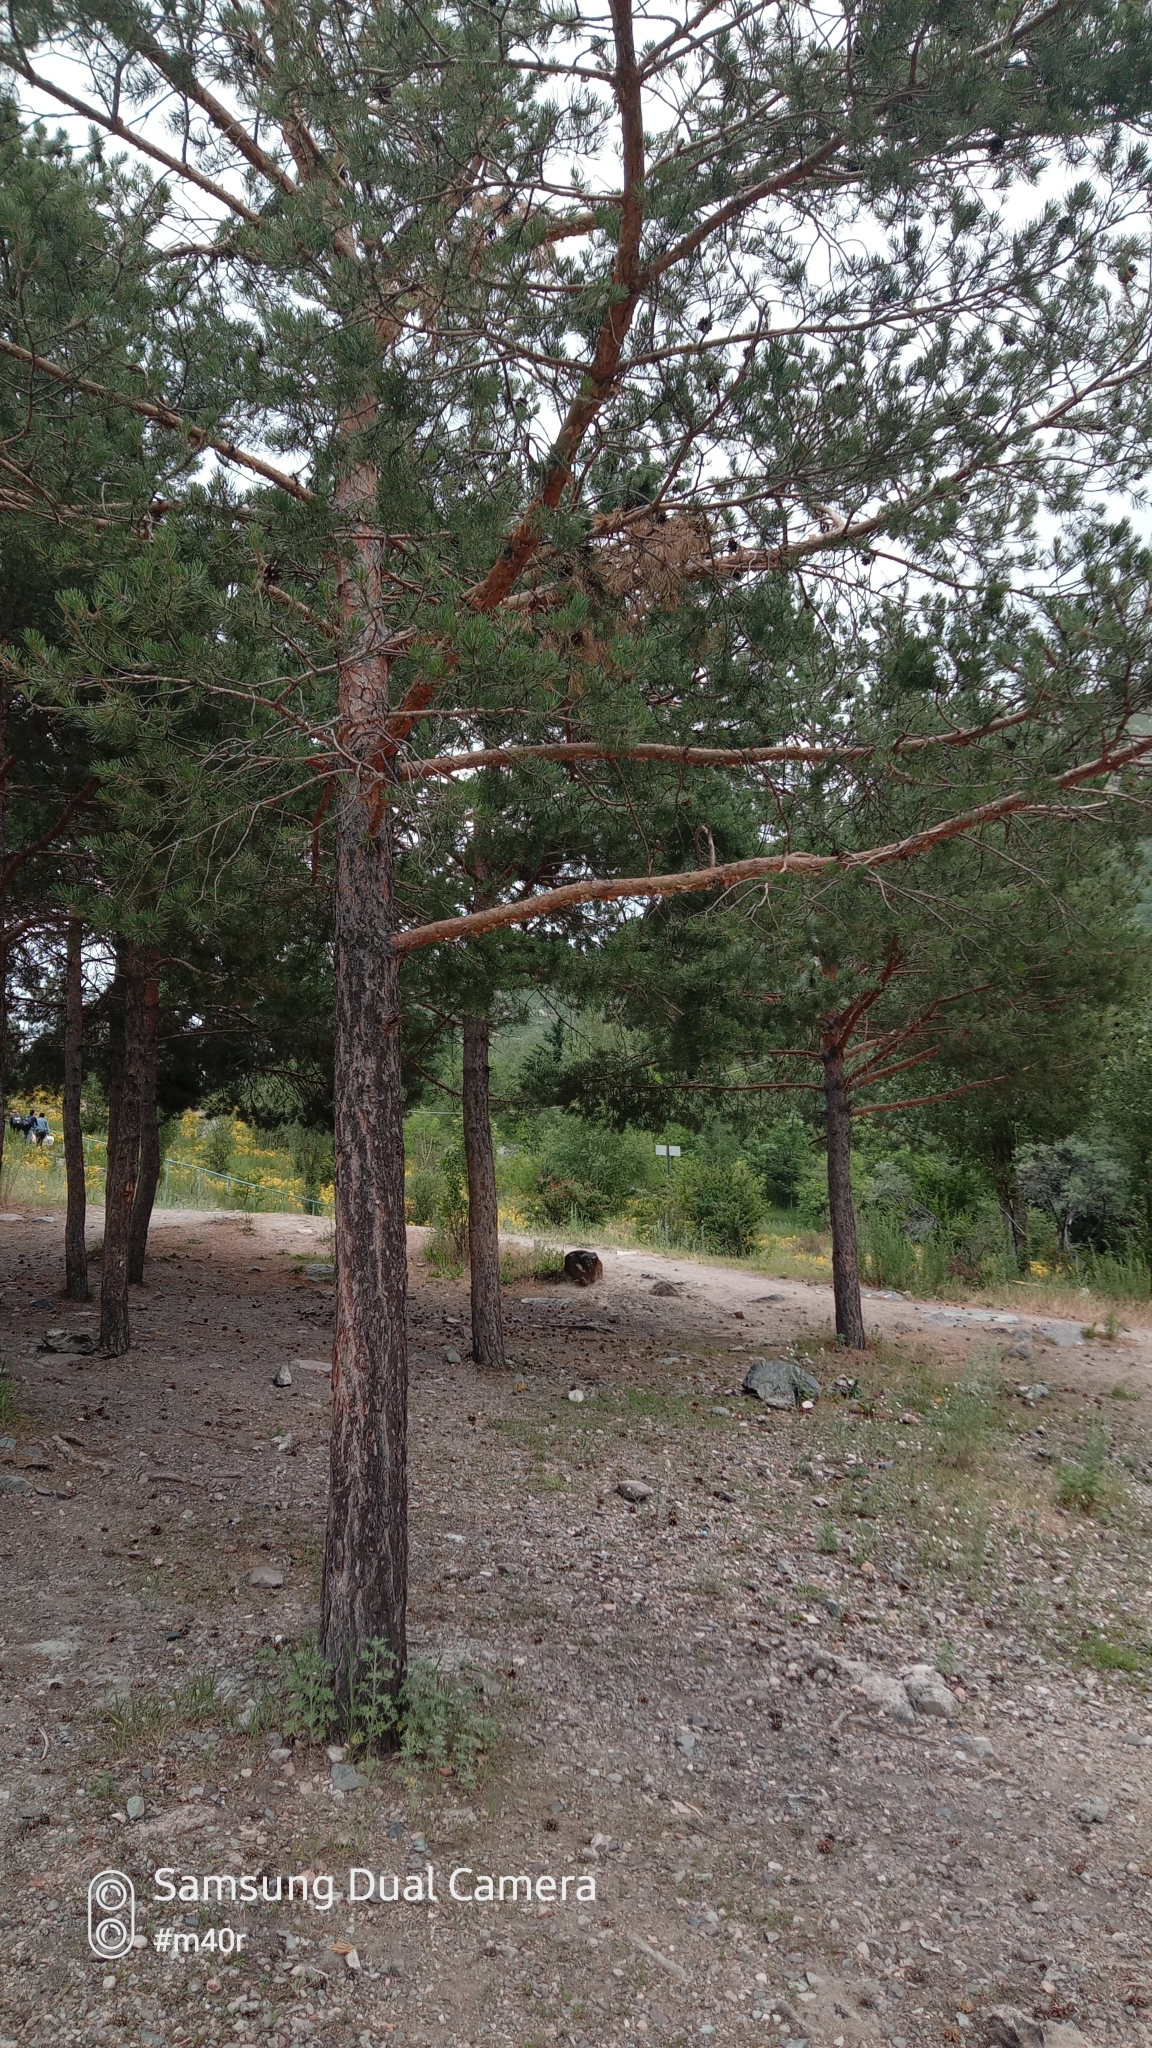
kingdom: Plantae
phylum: Tracheophyta
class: Pinopsida
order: Pinales
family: Pinaceae
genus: Pinus
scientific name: Pinus sylvestris
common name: Scots pine
